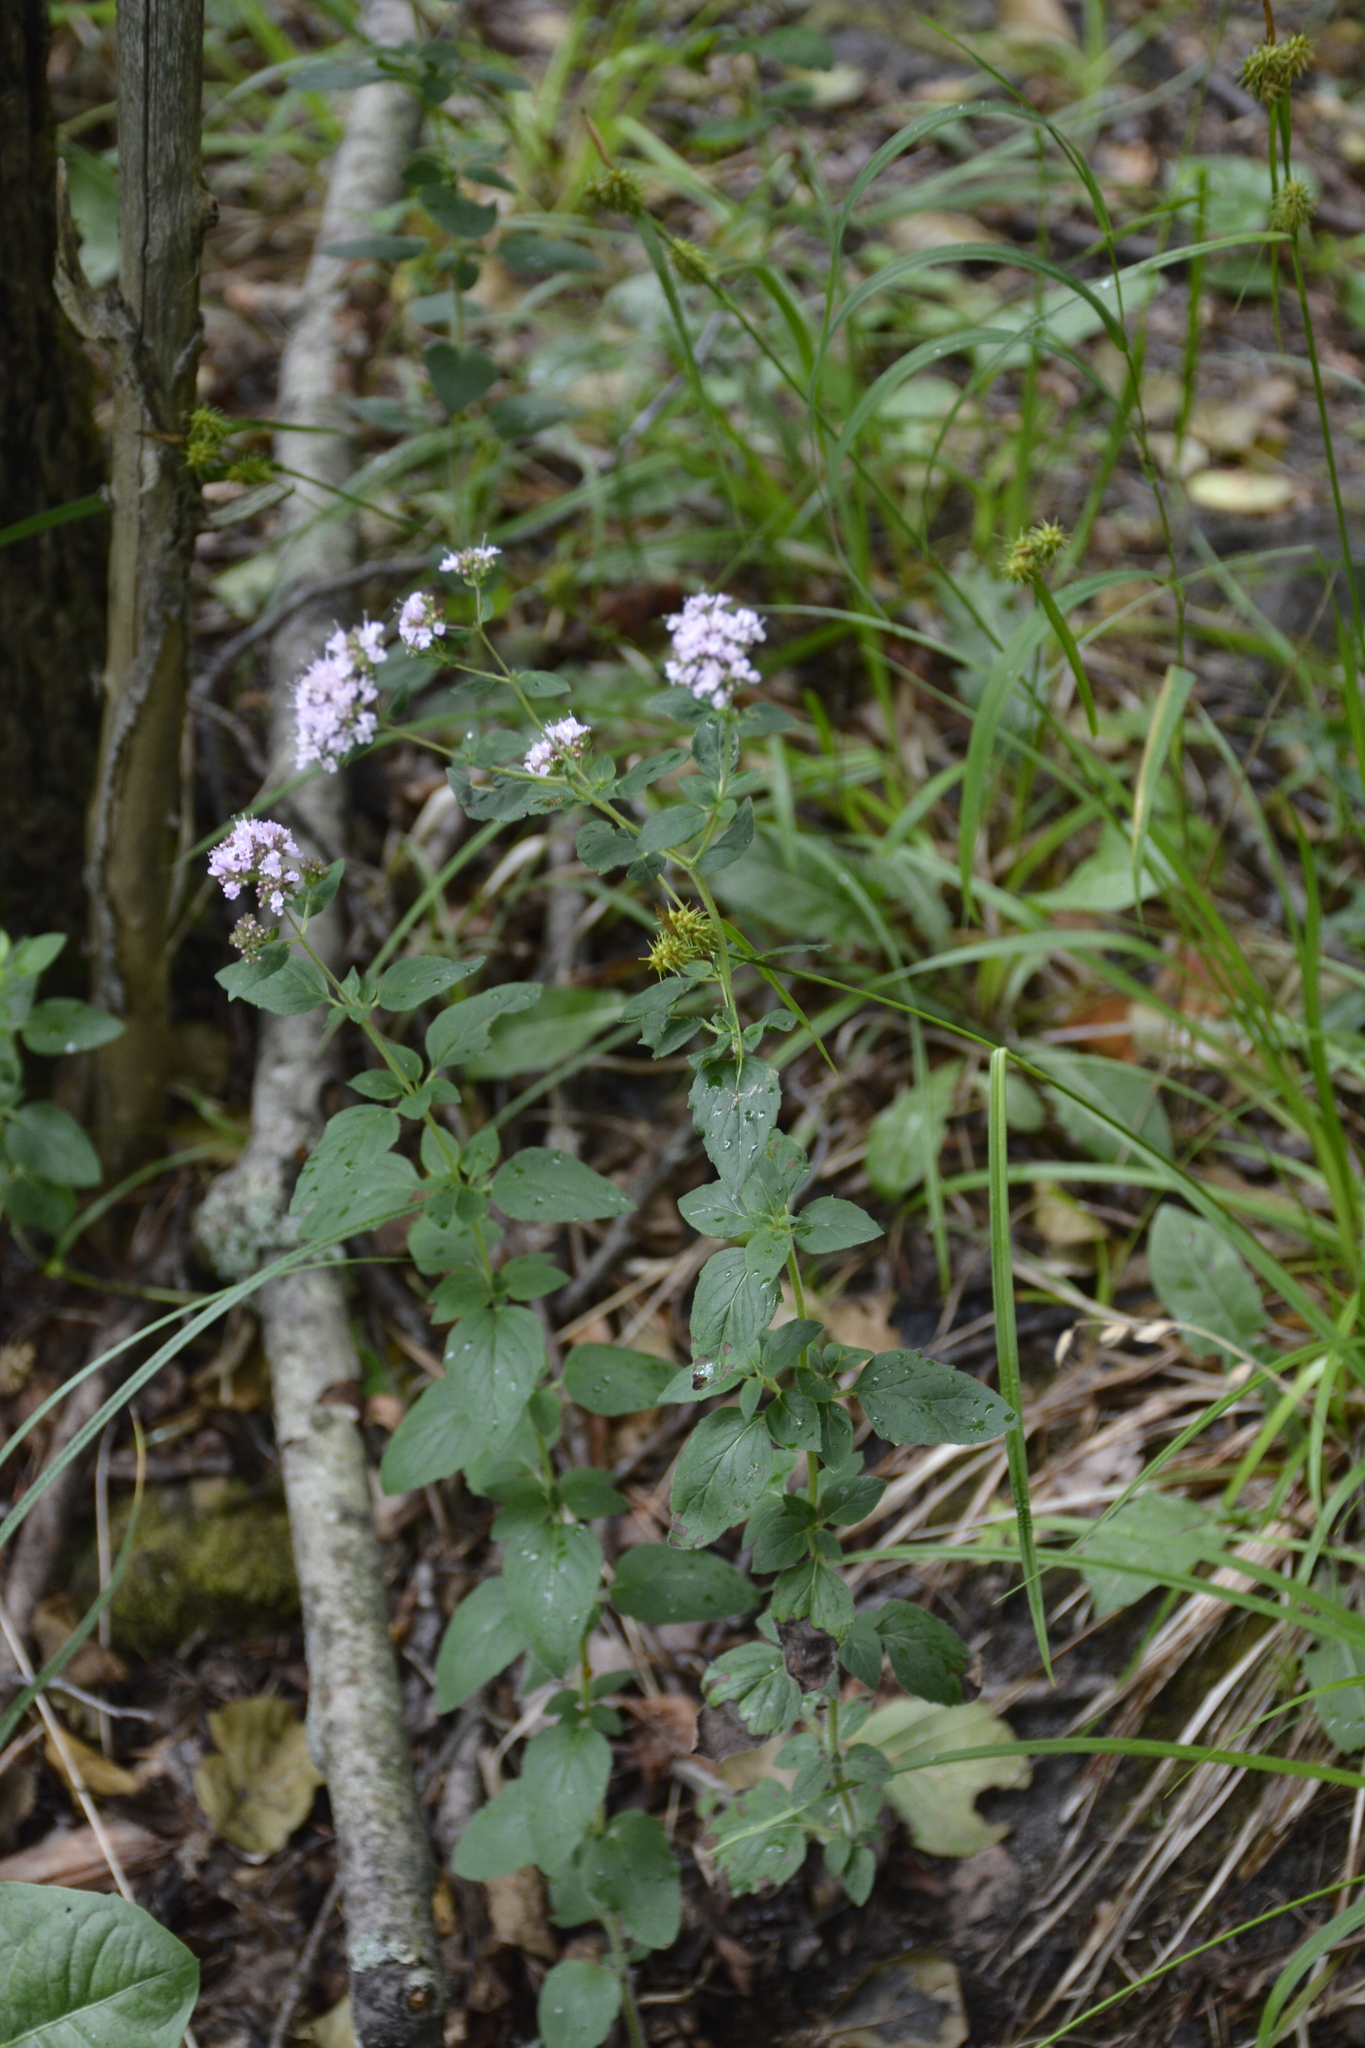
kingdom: Plantae
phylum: Tracheophyta
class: Magnoliopsida
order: Lamiales
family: Lamiaceae
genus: Origanum
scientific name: Origanum vulgare
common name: Wild marjoram
